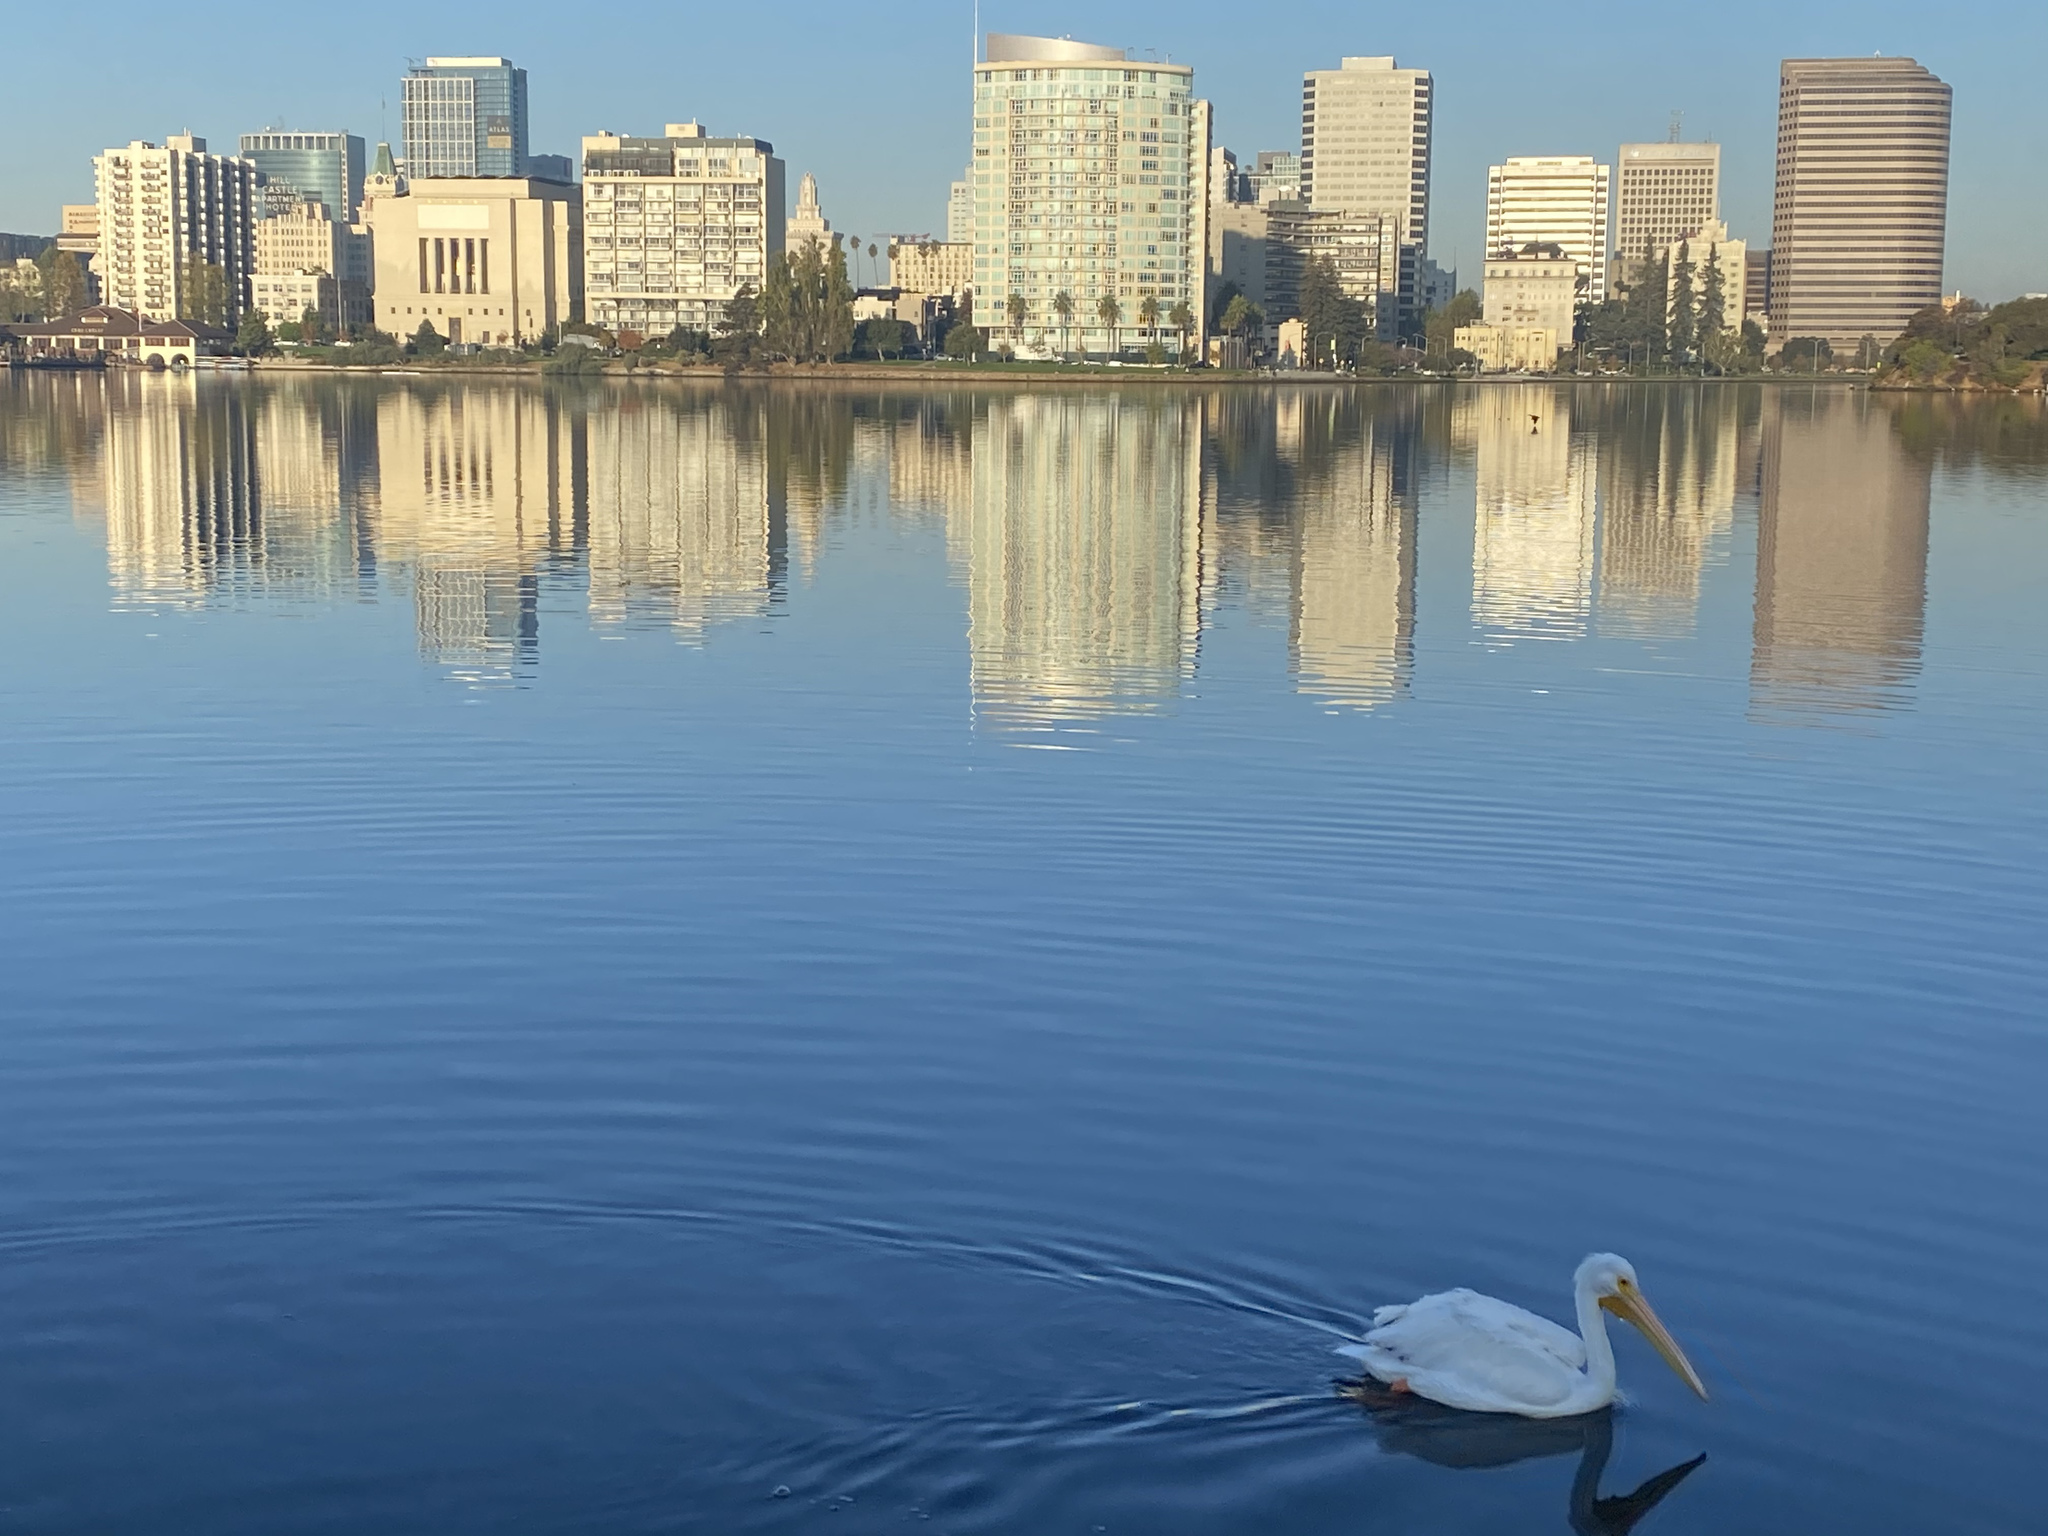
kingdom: Animalia
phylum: Chordata
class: Aves
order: Pelecaniformes
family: Pelecanidae
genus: Pelecanus
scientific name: Pelecanus erythrorhynchos
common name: American white pelican
